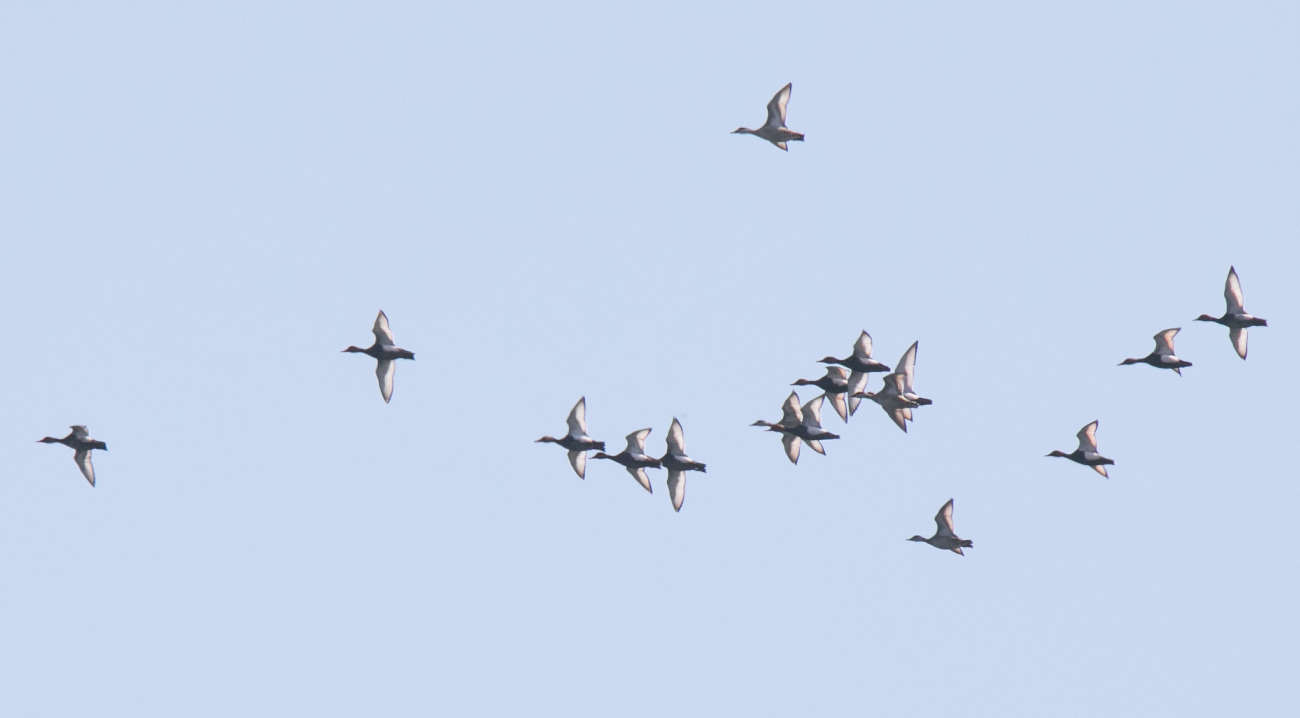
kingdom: Animalia
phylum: Chordata
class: Aves
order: Anseriformes
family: Anatidae
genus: Netta
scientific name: Netta rufina
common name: Red-crested pochard
